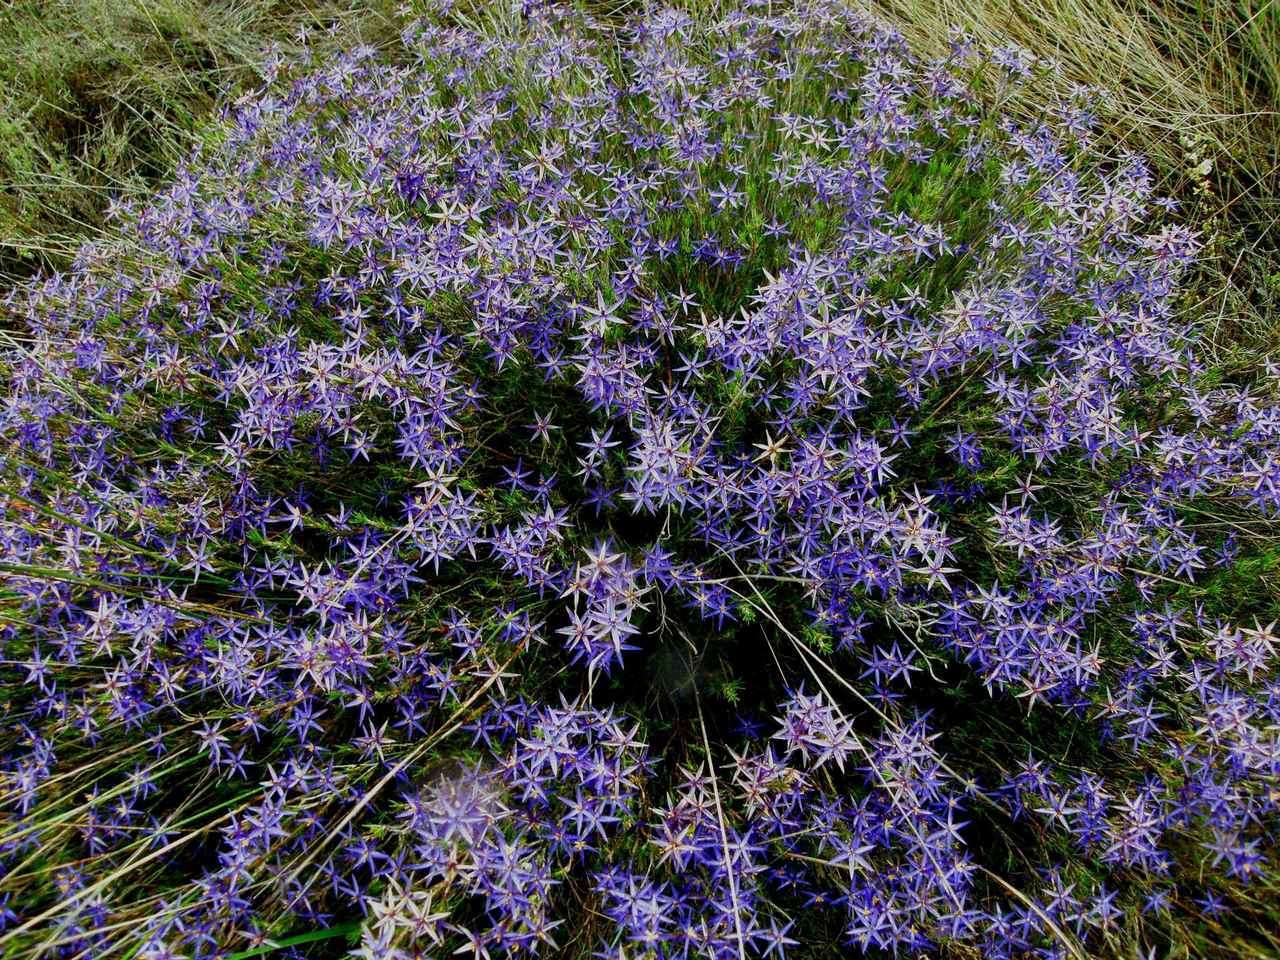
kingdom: Plantae
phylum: Tracheophyta
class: Liliopsida
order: Arecales
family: Dasypogonaceae
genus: Calectasia
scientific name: Calectasia intermedia
